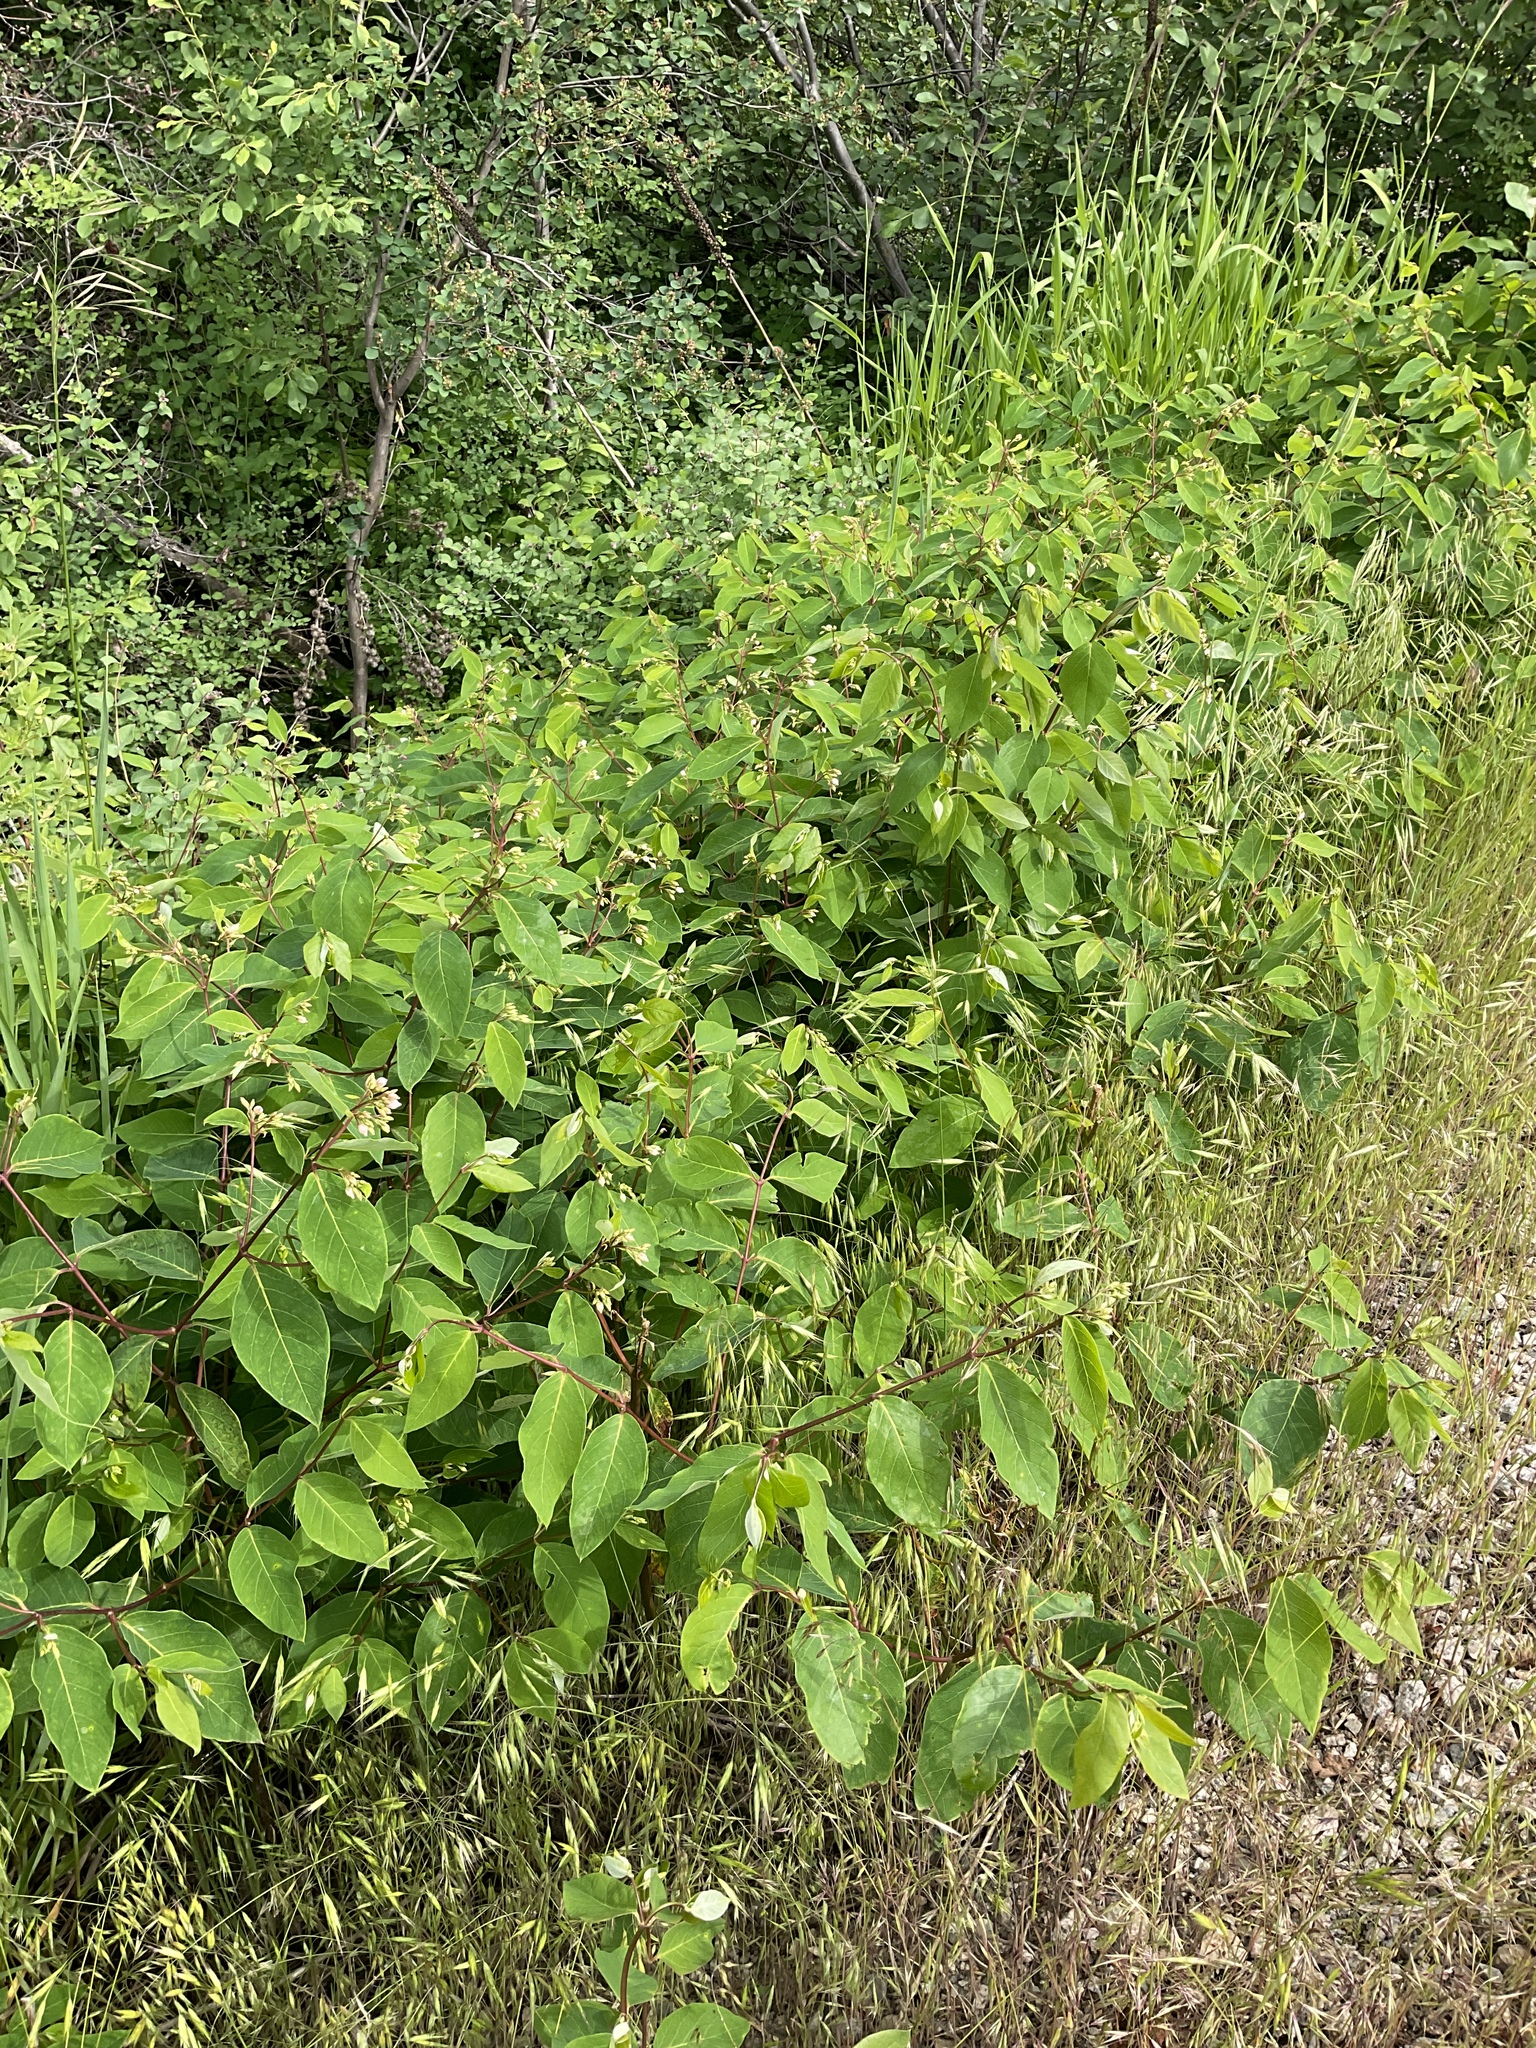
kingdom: Plantae
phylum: Tracheophyta
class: Magnoliopsida
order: Gentianales
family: Apocynaceae
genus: Apocynum
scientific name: Apocynum androsaemifolium
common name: Spreading dogbane
